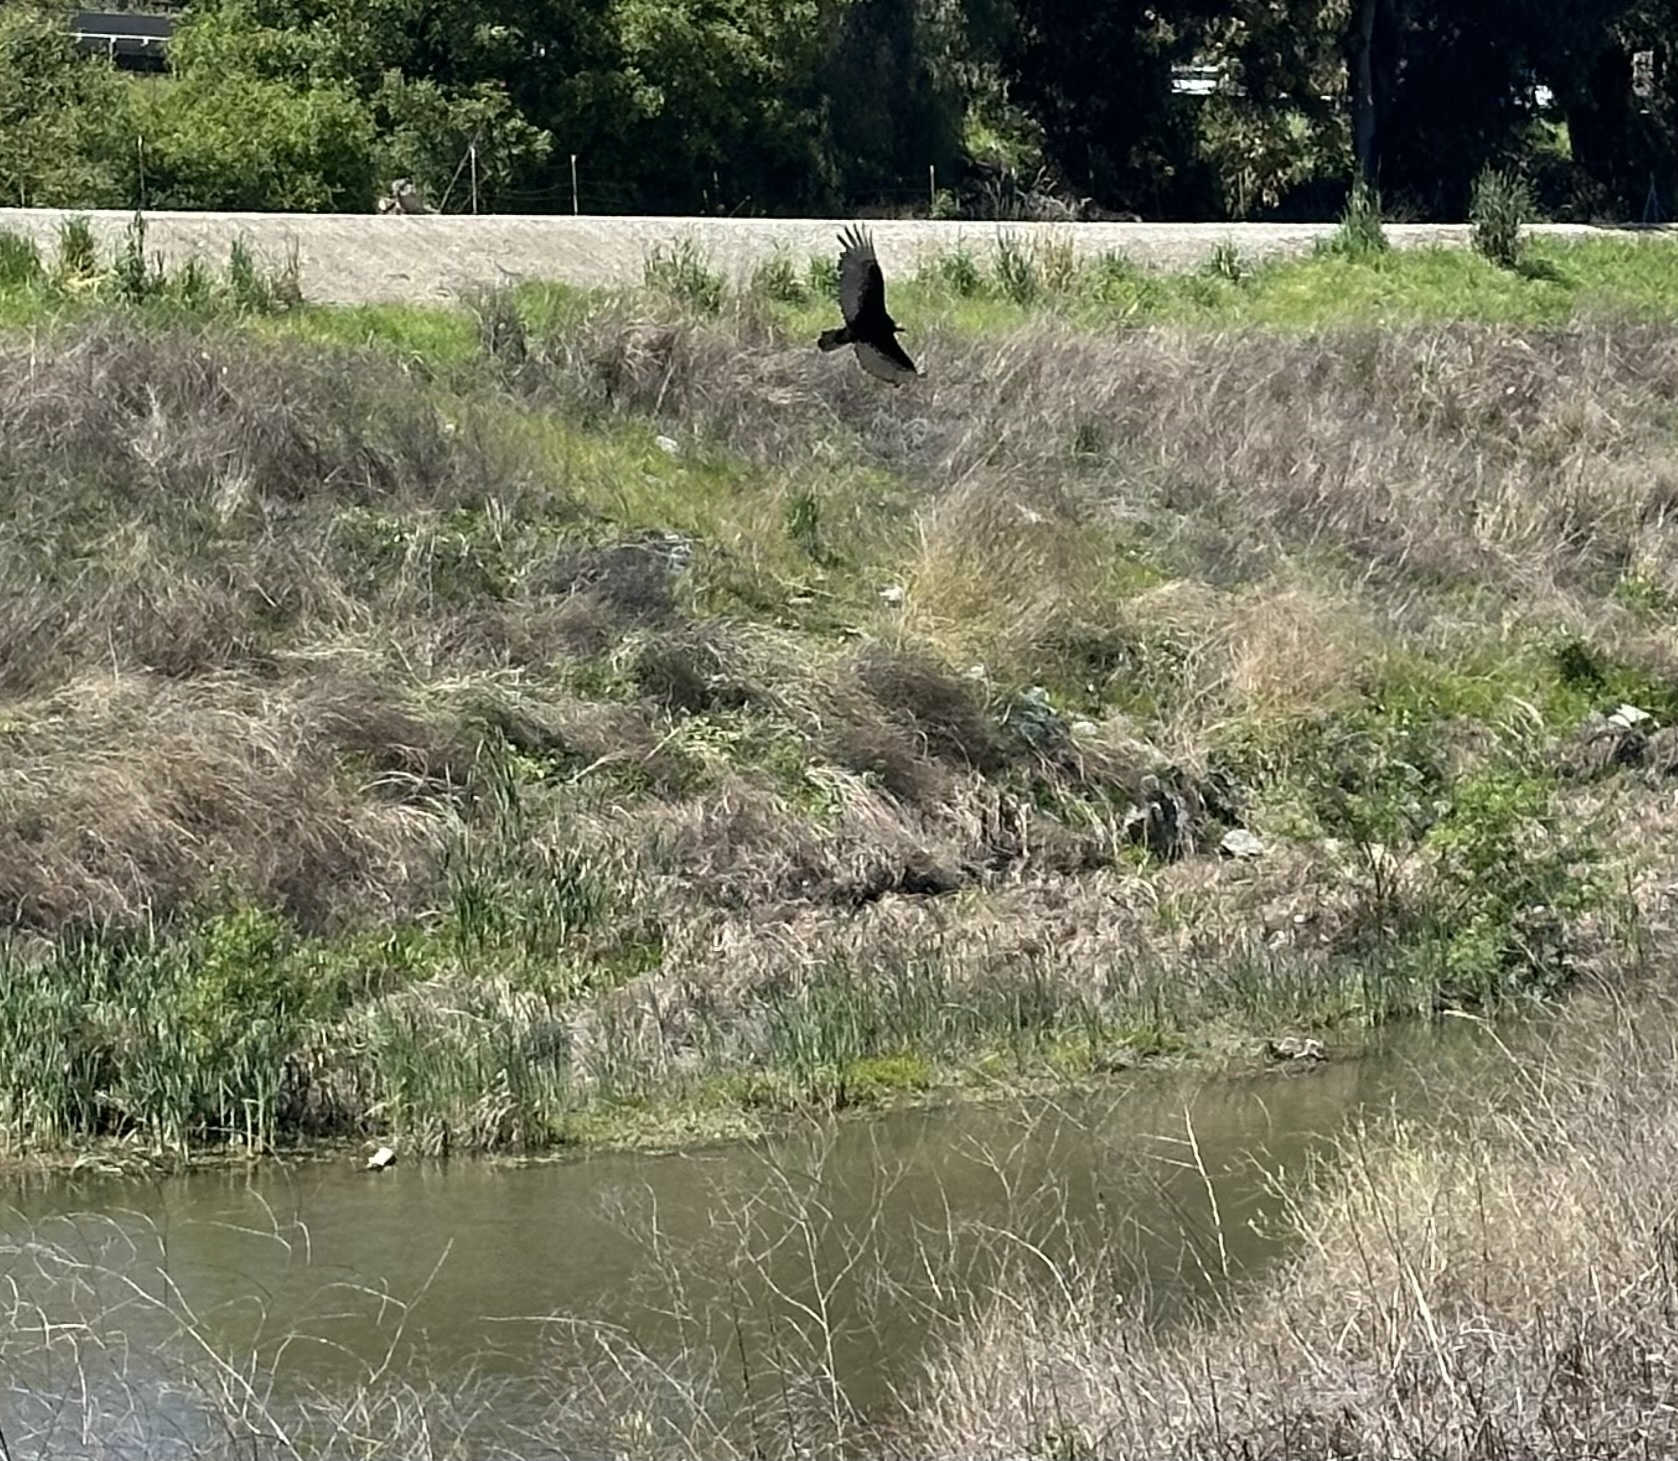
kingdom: Animalia
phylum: Chordata
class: Aves
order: Accipitriformes
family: Cathartidae
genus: Cathartes
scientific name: Cathartes aura
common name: Turkey vulture
